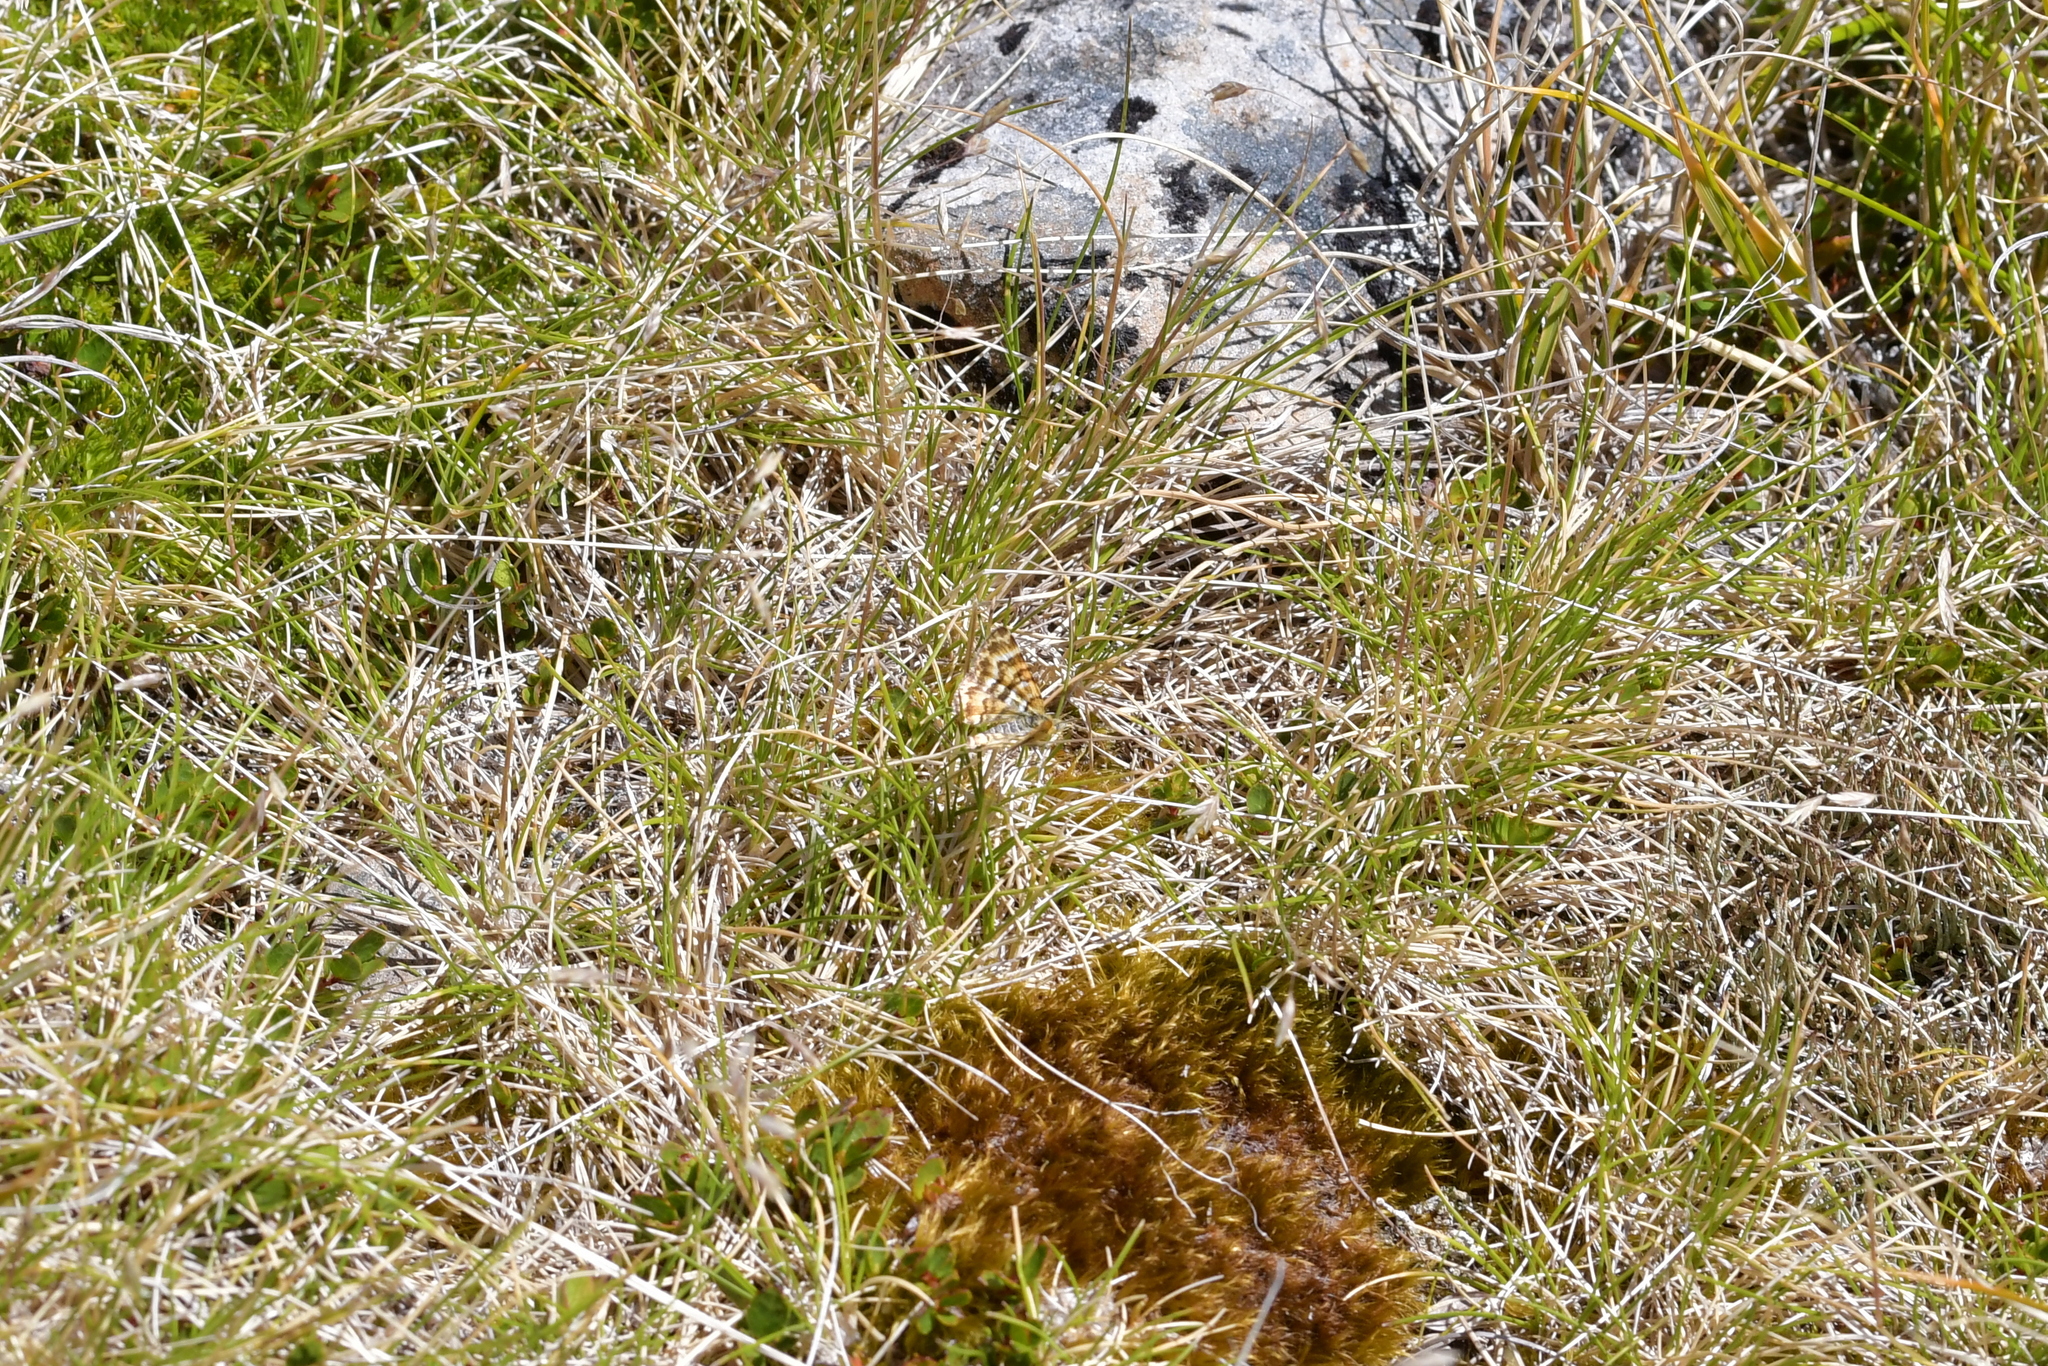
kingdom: Animalia
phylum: Arthropoda
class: Insecta
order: Lepidoptera
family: Geometridae
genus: Notoreas
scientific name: Notoreas mechanitis
